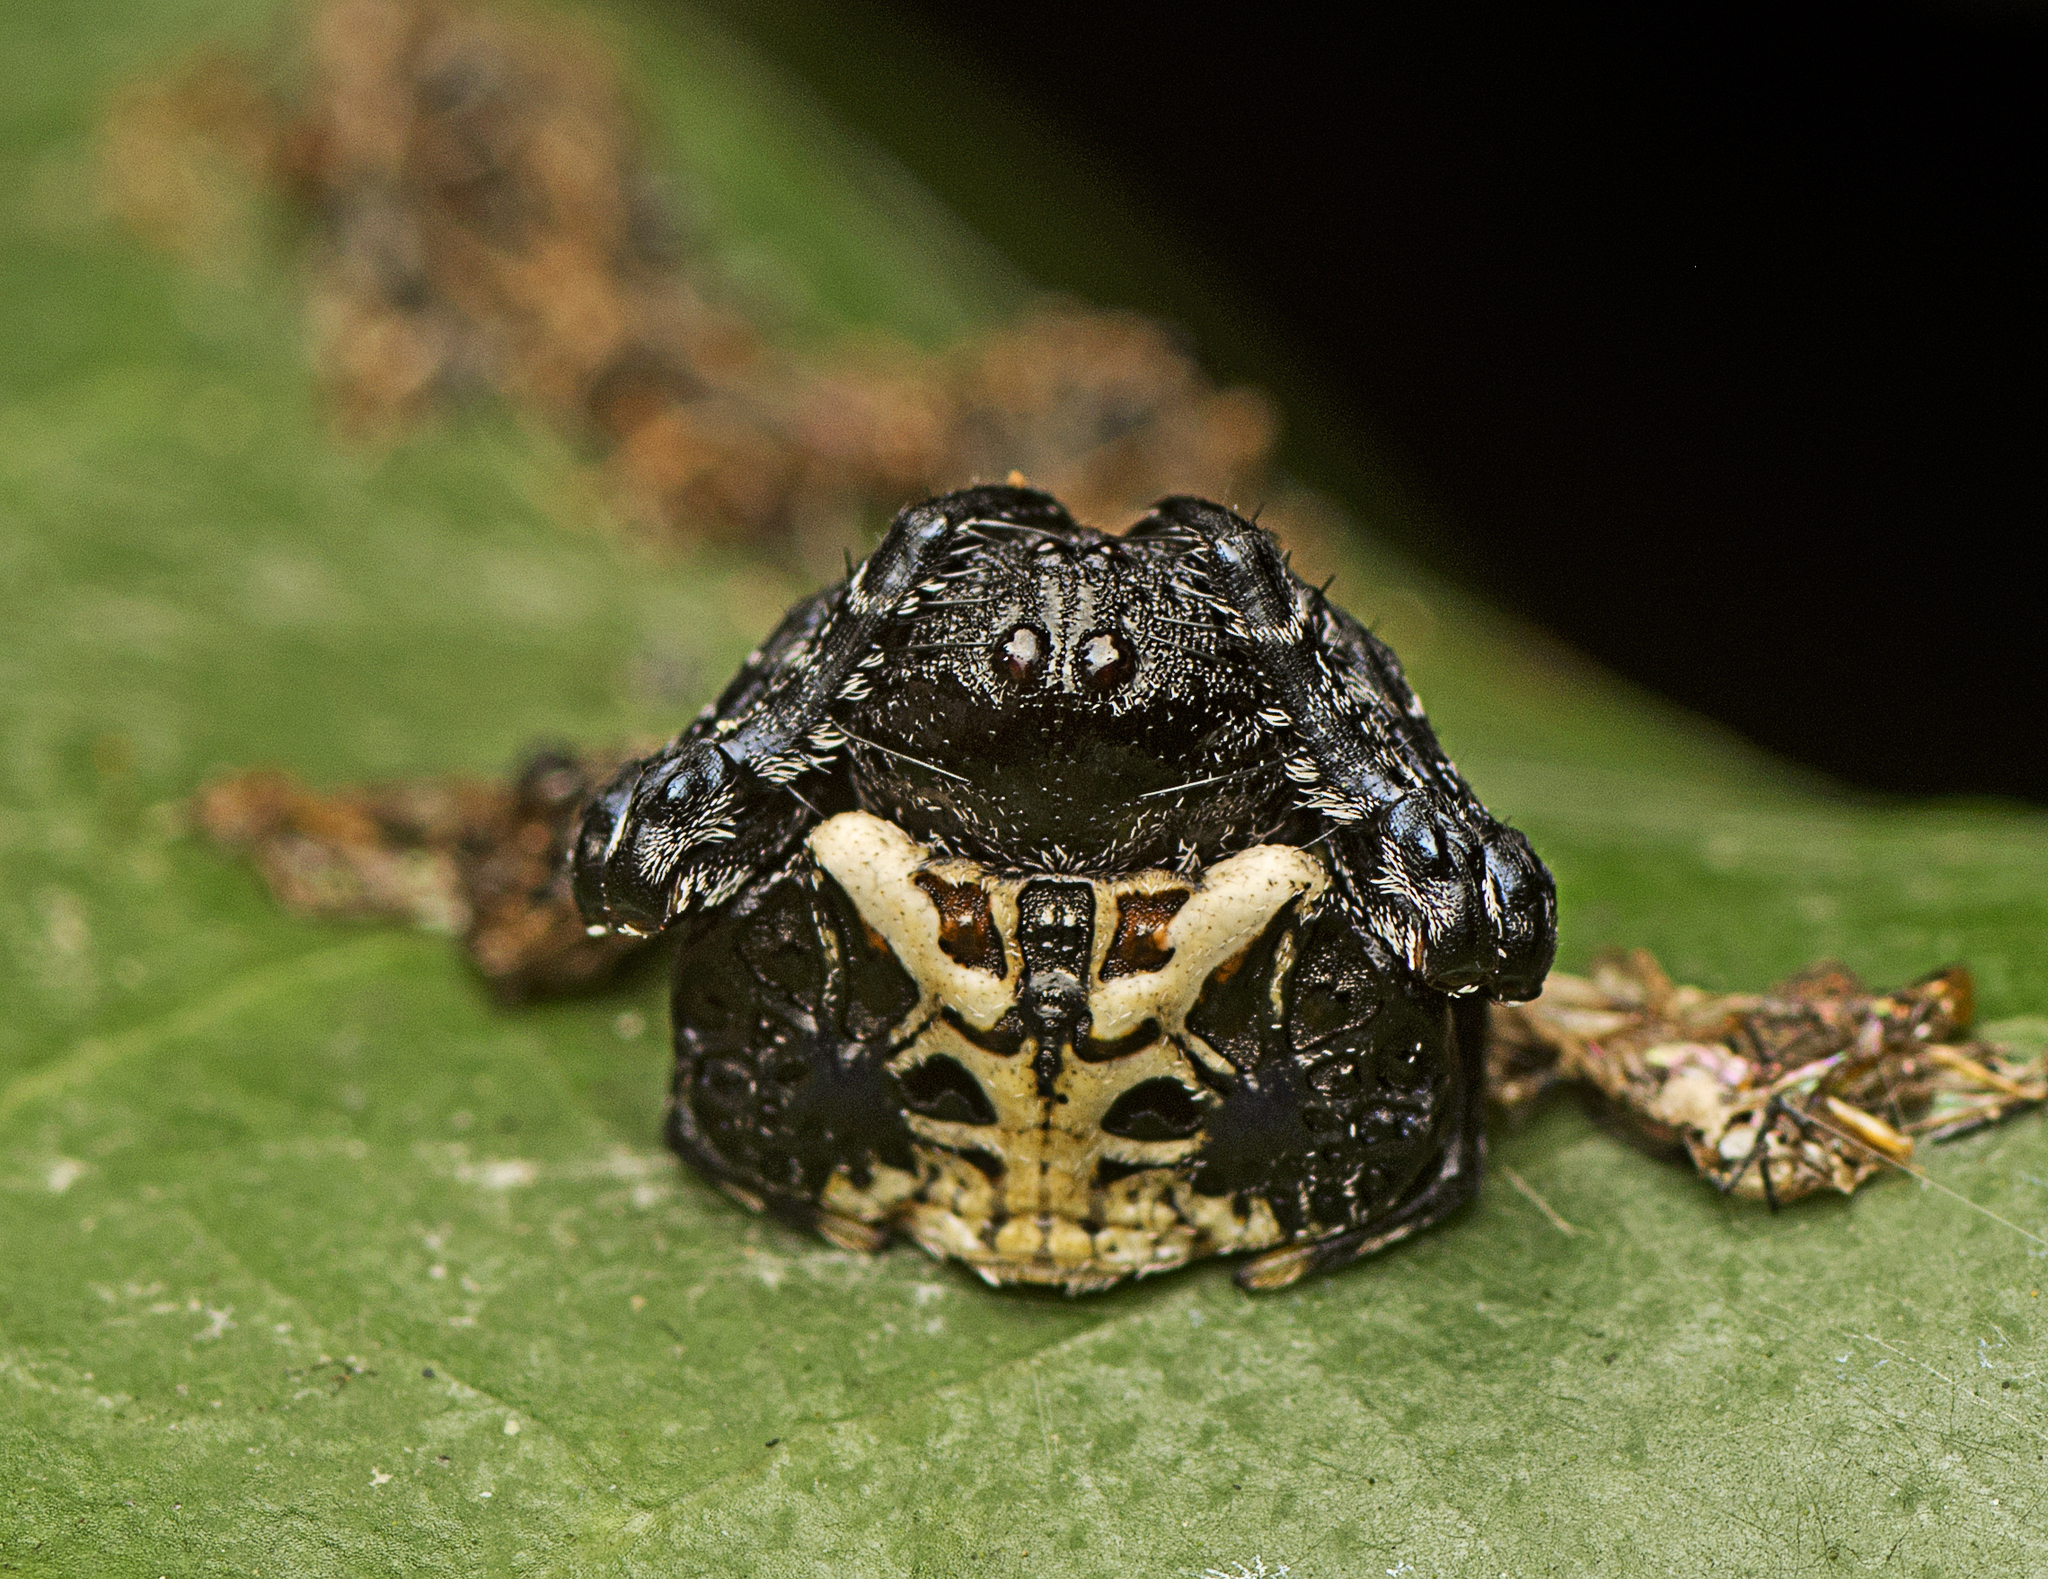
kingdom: Animalia
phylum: Arthropoda
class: Arachnida
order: Araneae
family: Arkyidae
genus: Arkys
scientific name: Arkys curtulus
